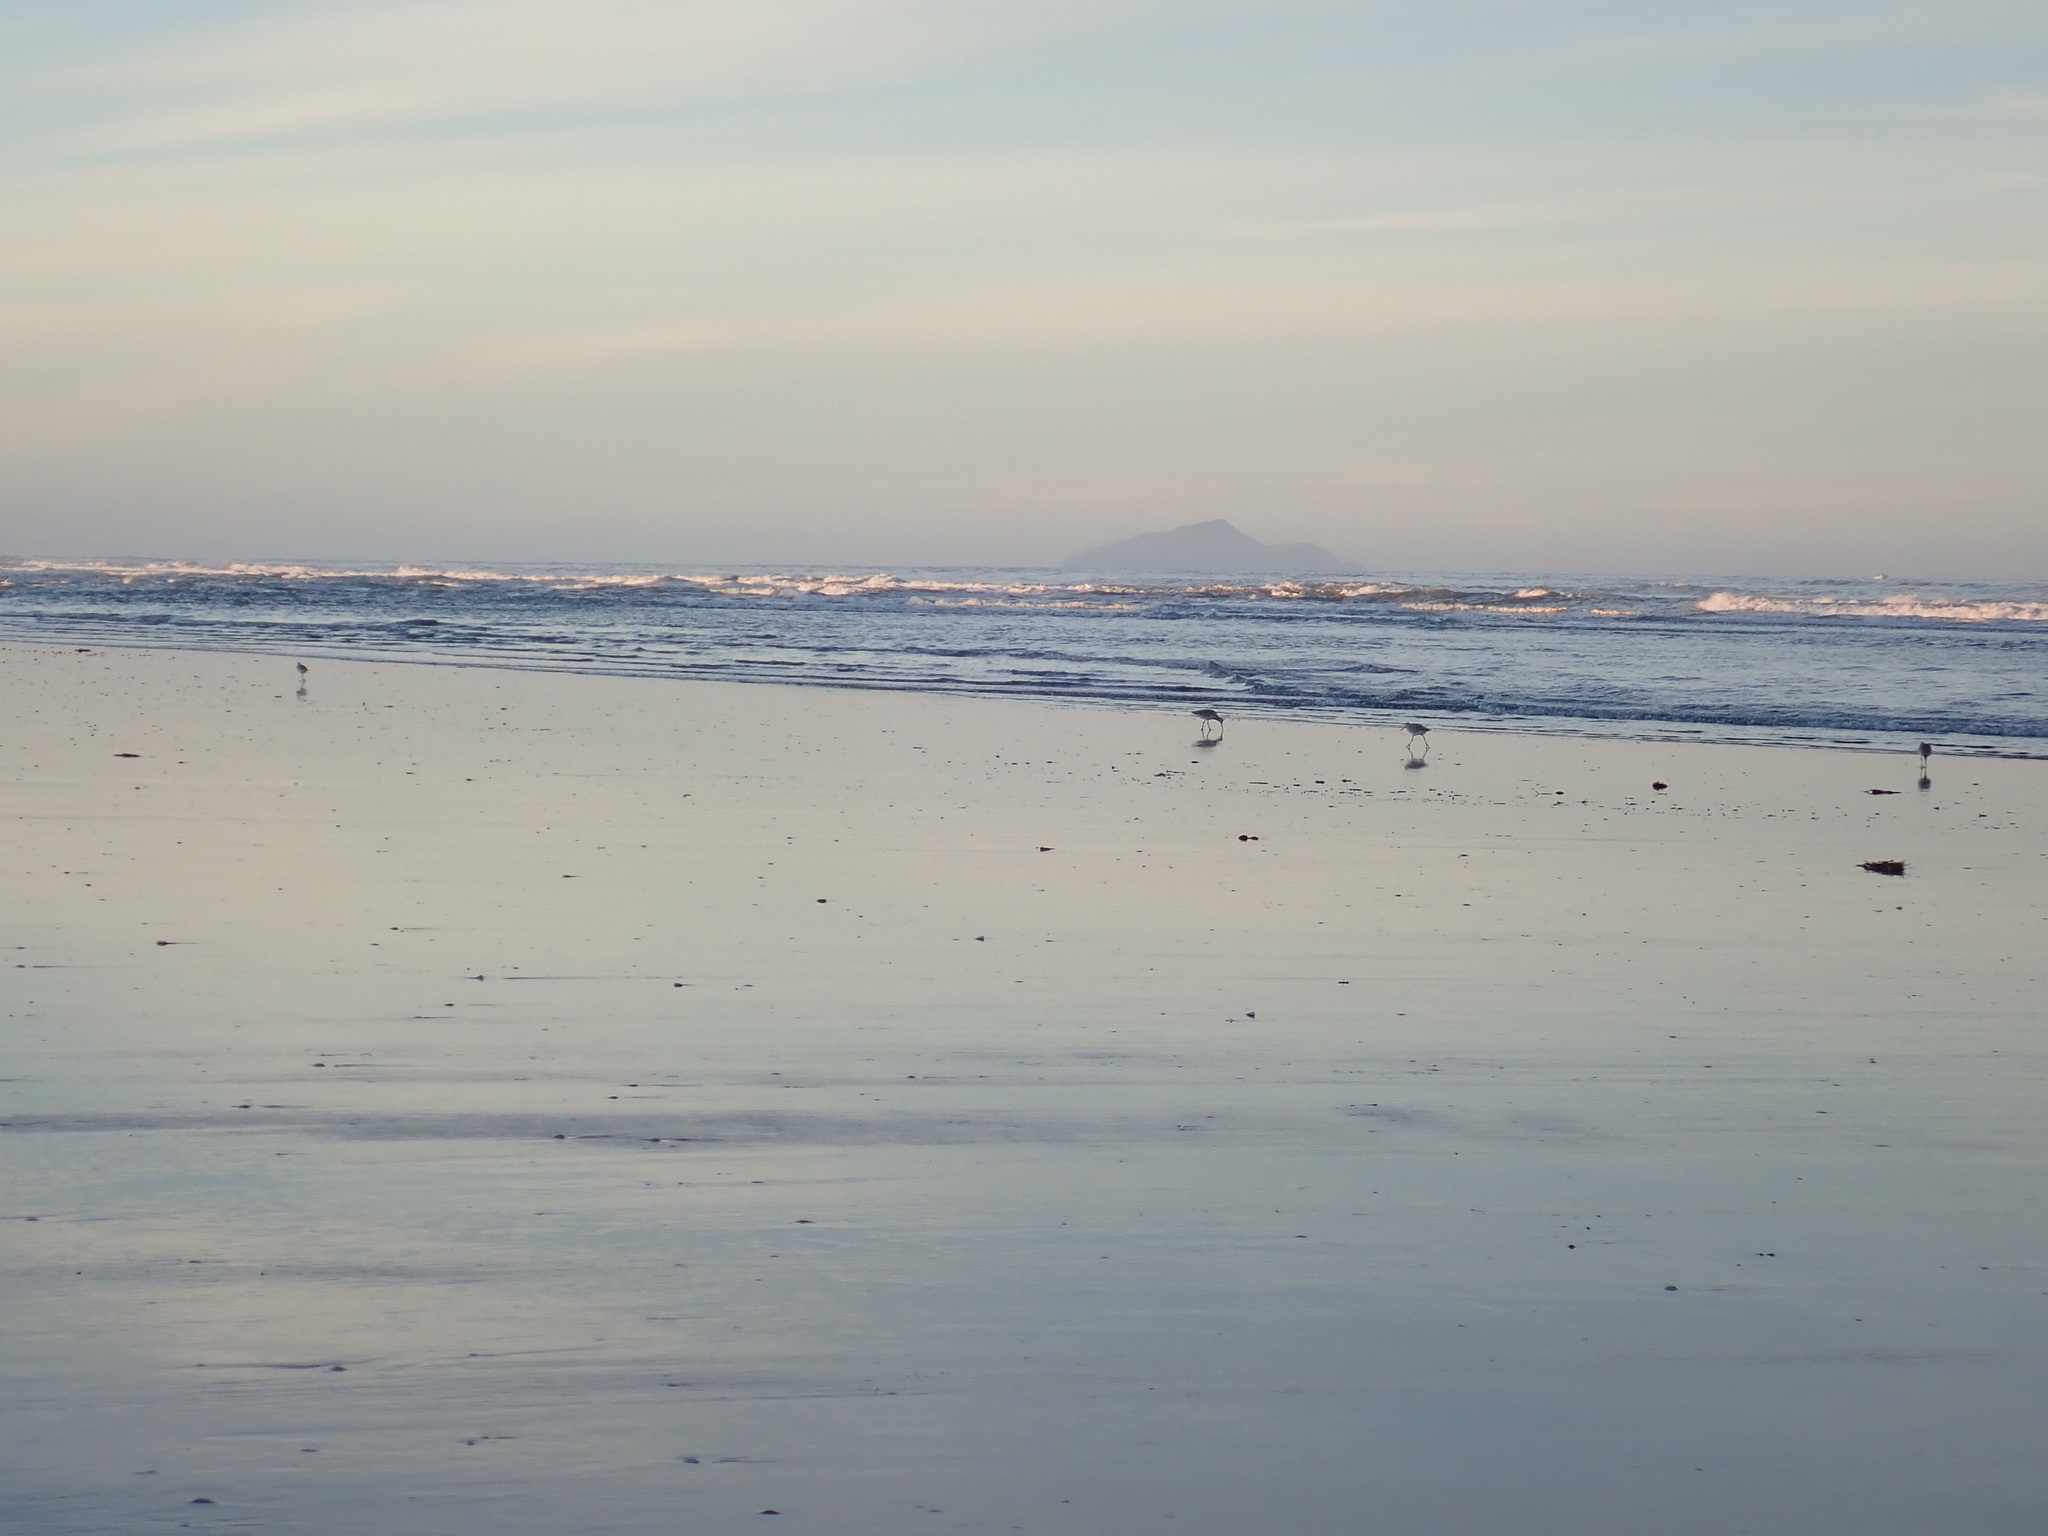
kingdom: Animalia
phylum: Chordata
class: Aves
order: Charadriiformes
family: Scolopacidae
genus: Limosa
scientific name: Limosa lapponica
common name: Bar-tailed godwit
